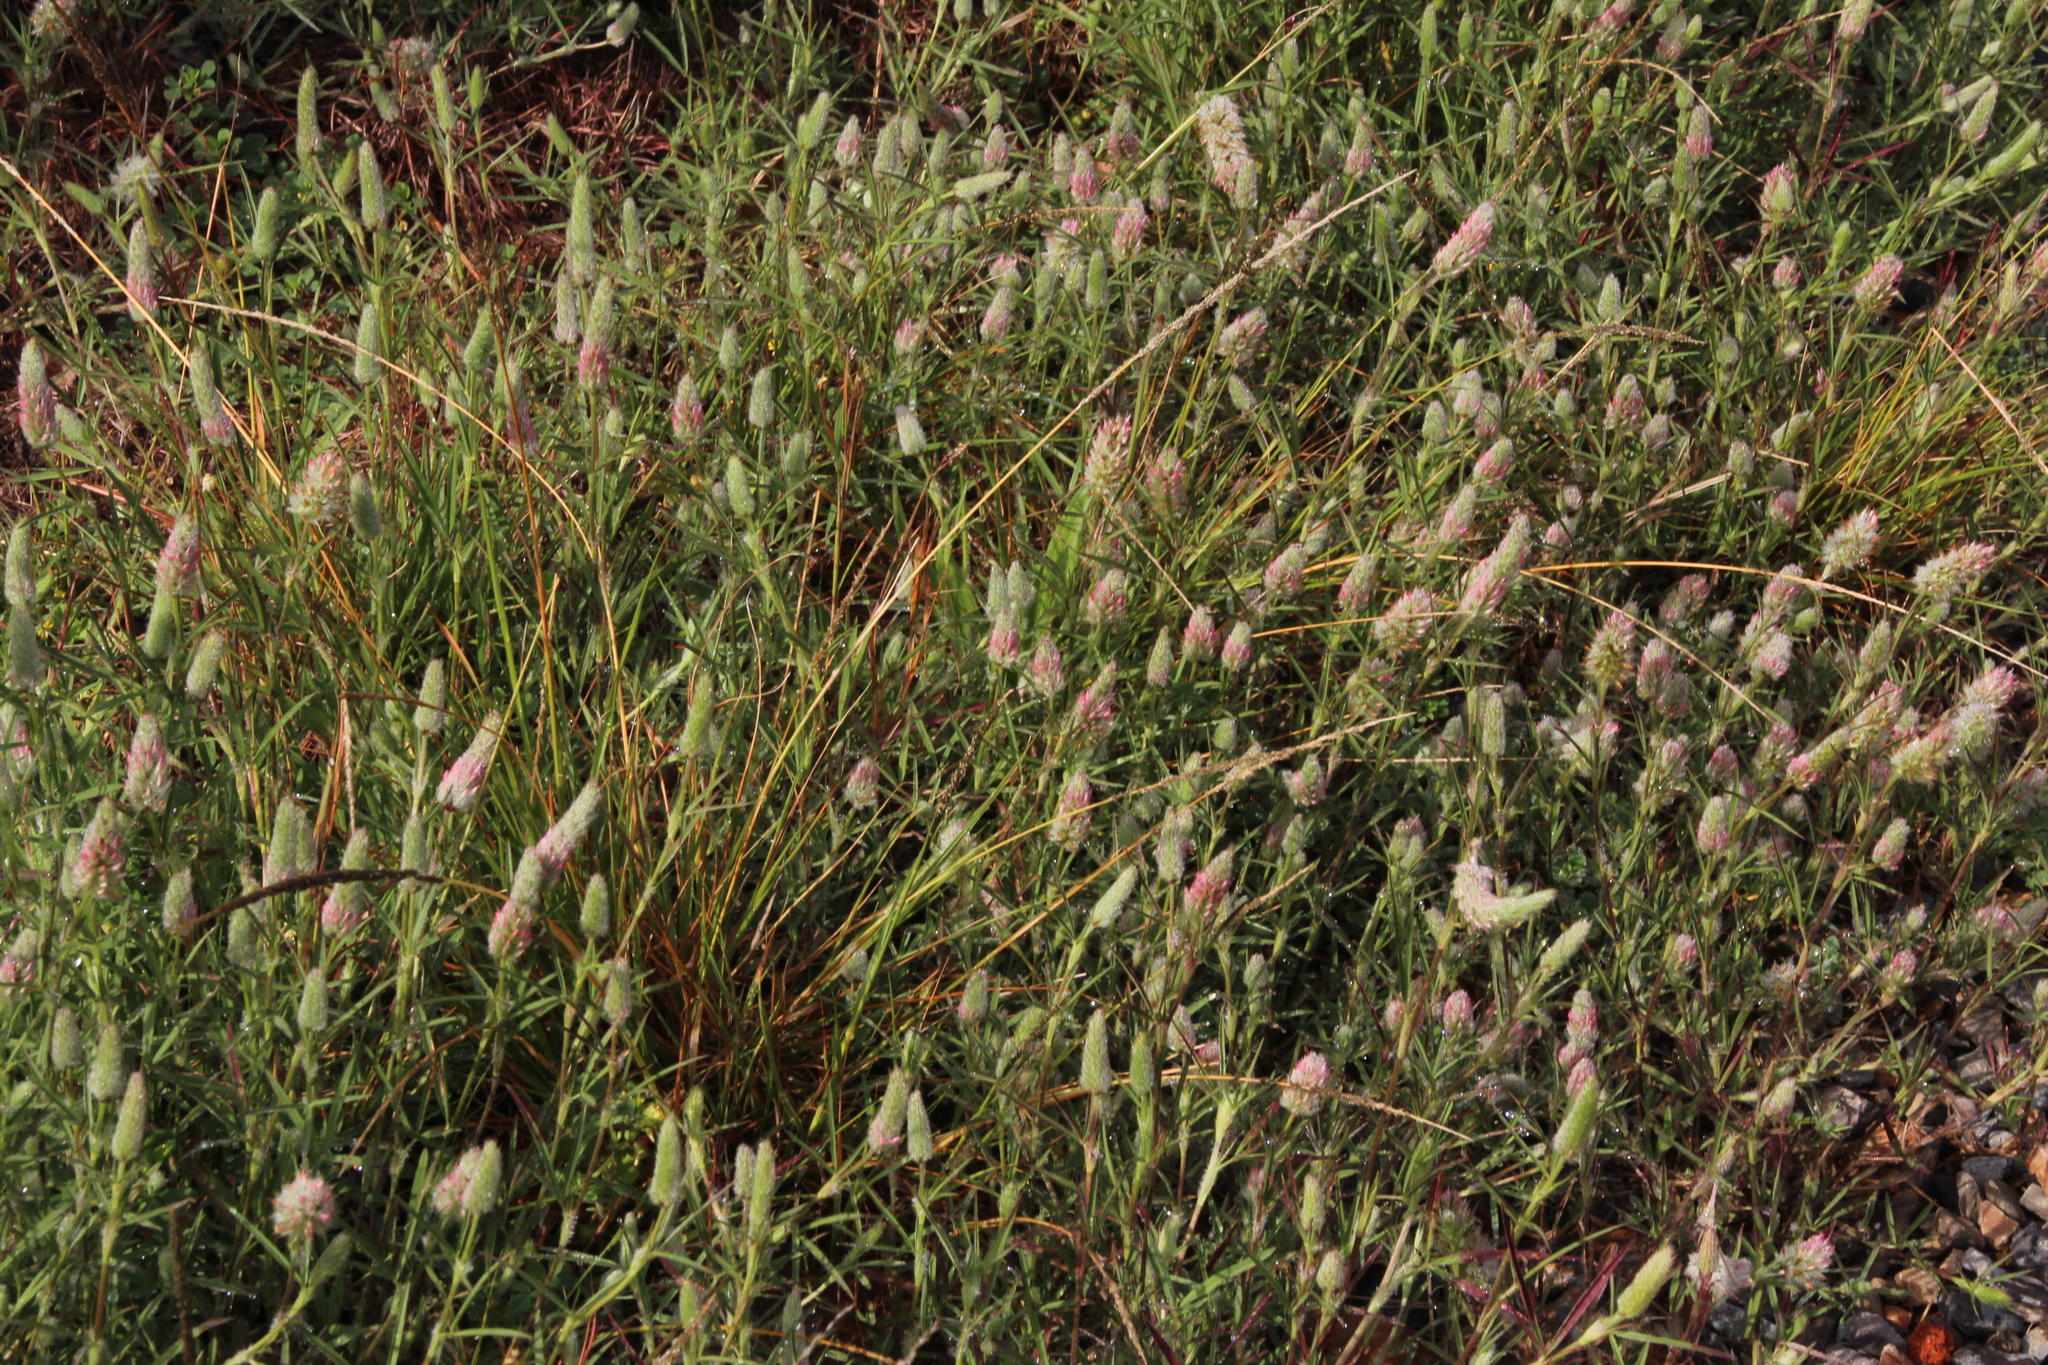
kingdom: Plantae
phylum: Tracheophyta
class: Magnoliopsida
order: Fabales
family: Fabaceae
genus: Trifolium
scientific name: Trifolium angustifolium
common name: Narrow clover
